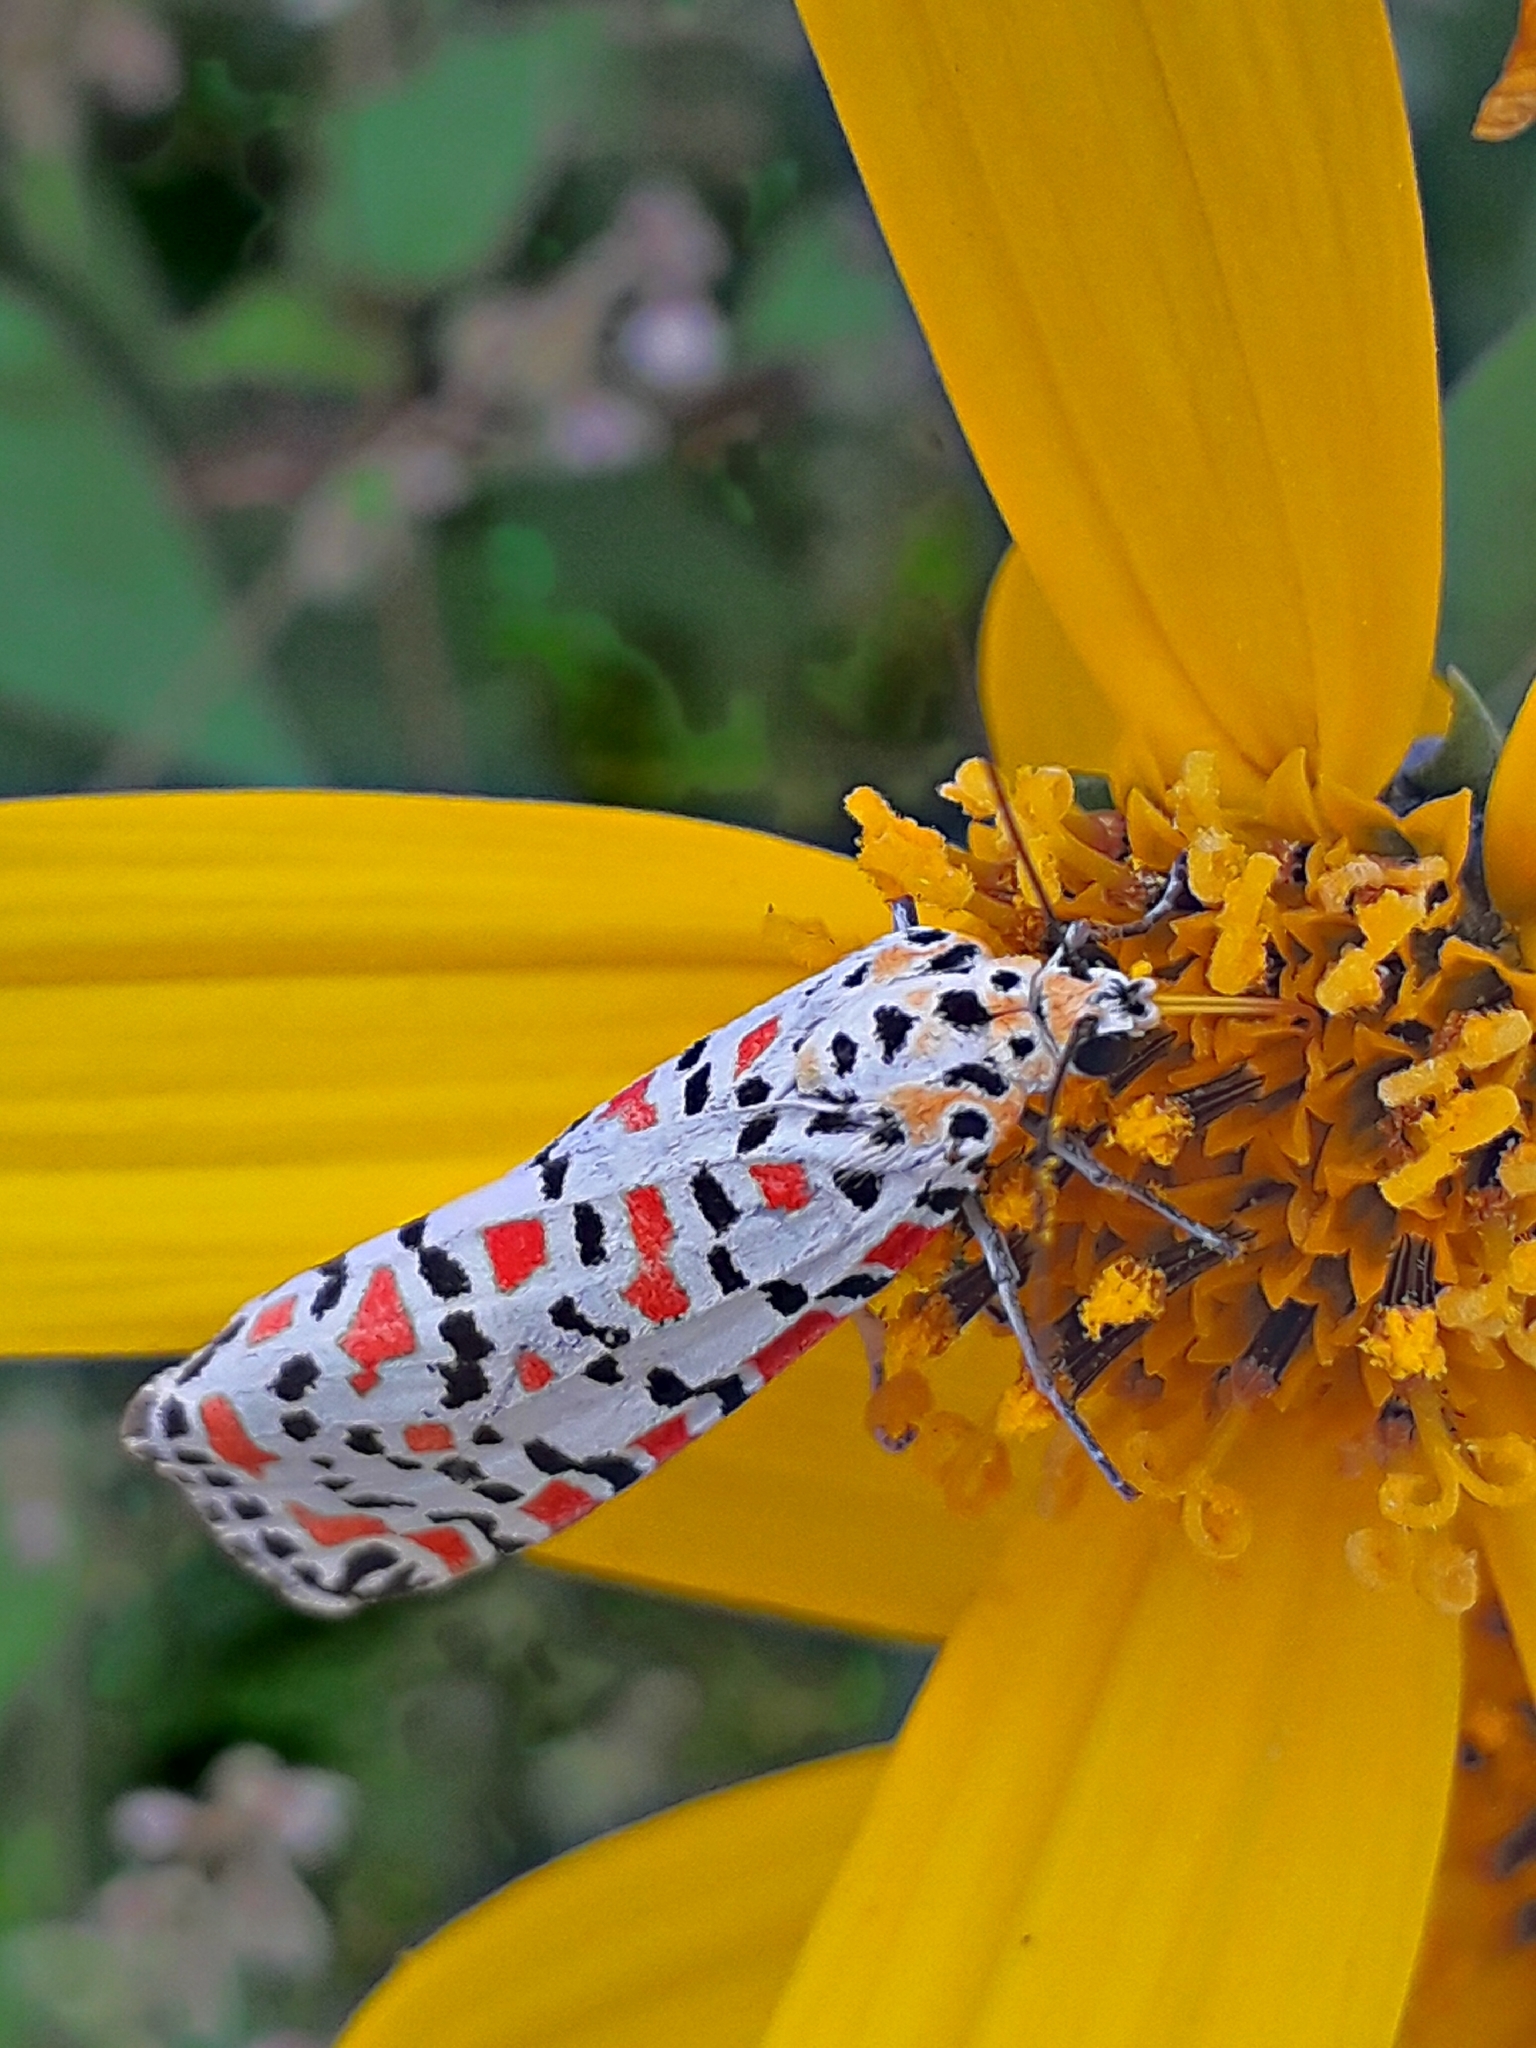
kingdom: Animalia
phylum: Arthropoda
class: Insecta
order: Lepidoptera
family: Erebidae
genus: Utetheisa
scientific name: Utetheisa pulchella
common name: Crimson speckled
